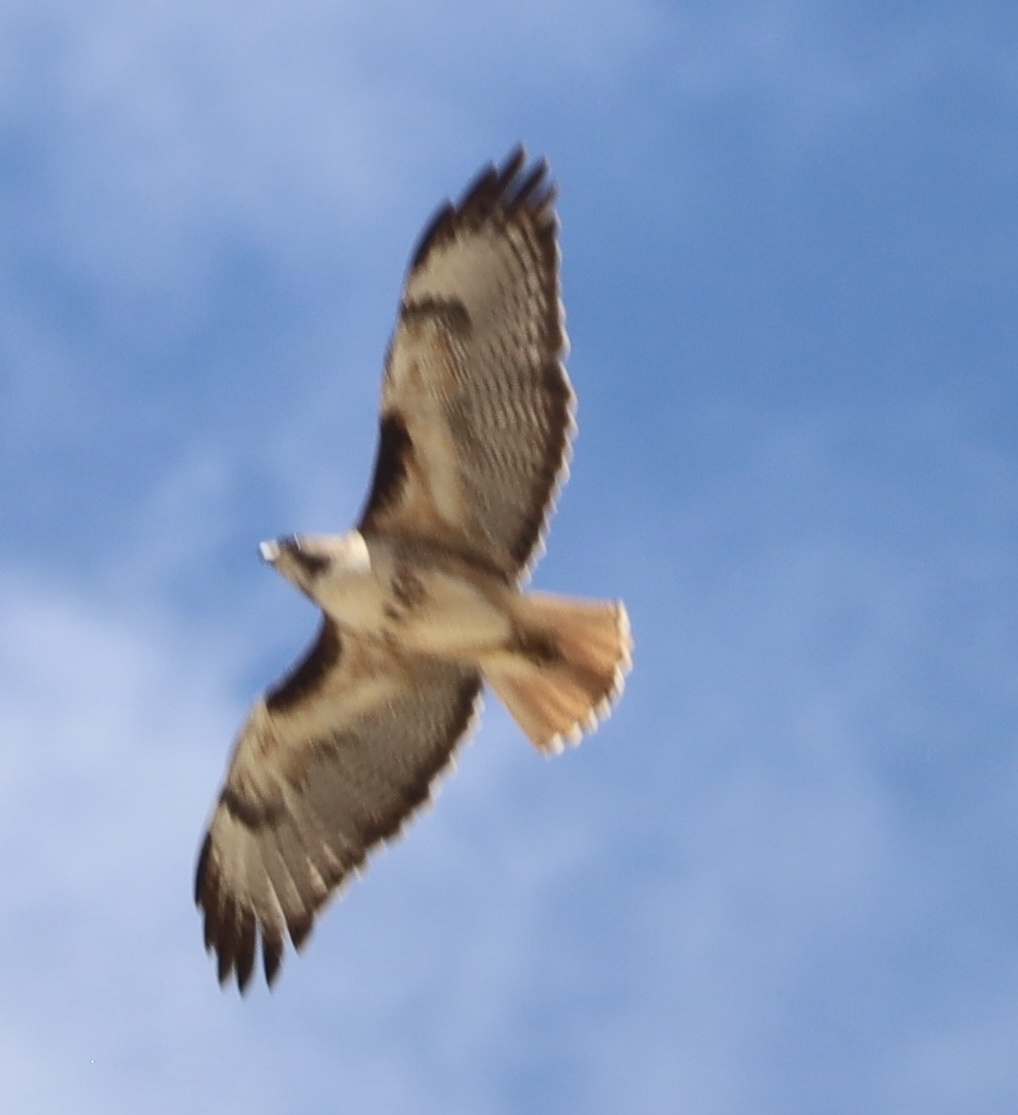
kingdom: Animalia
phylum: Chordata
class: Aves
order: Accipitriformes
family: Accipitridae
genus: Buteo
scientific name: Buteo jamaicensis
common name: Red-tailed hawk
